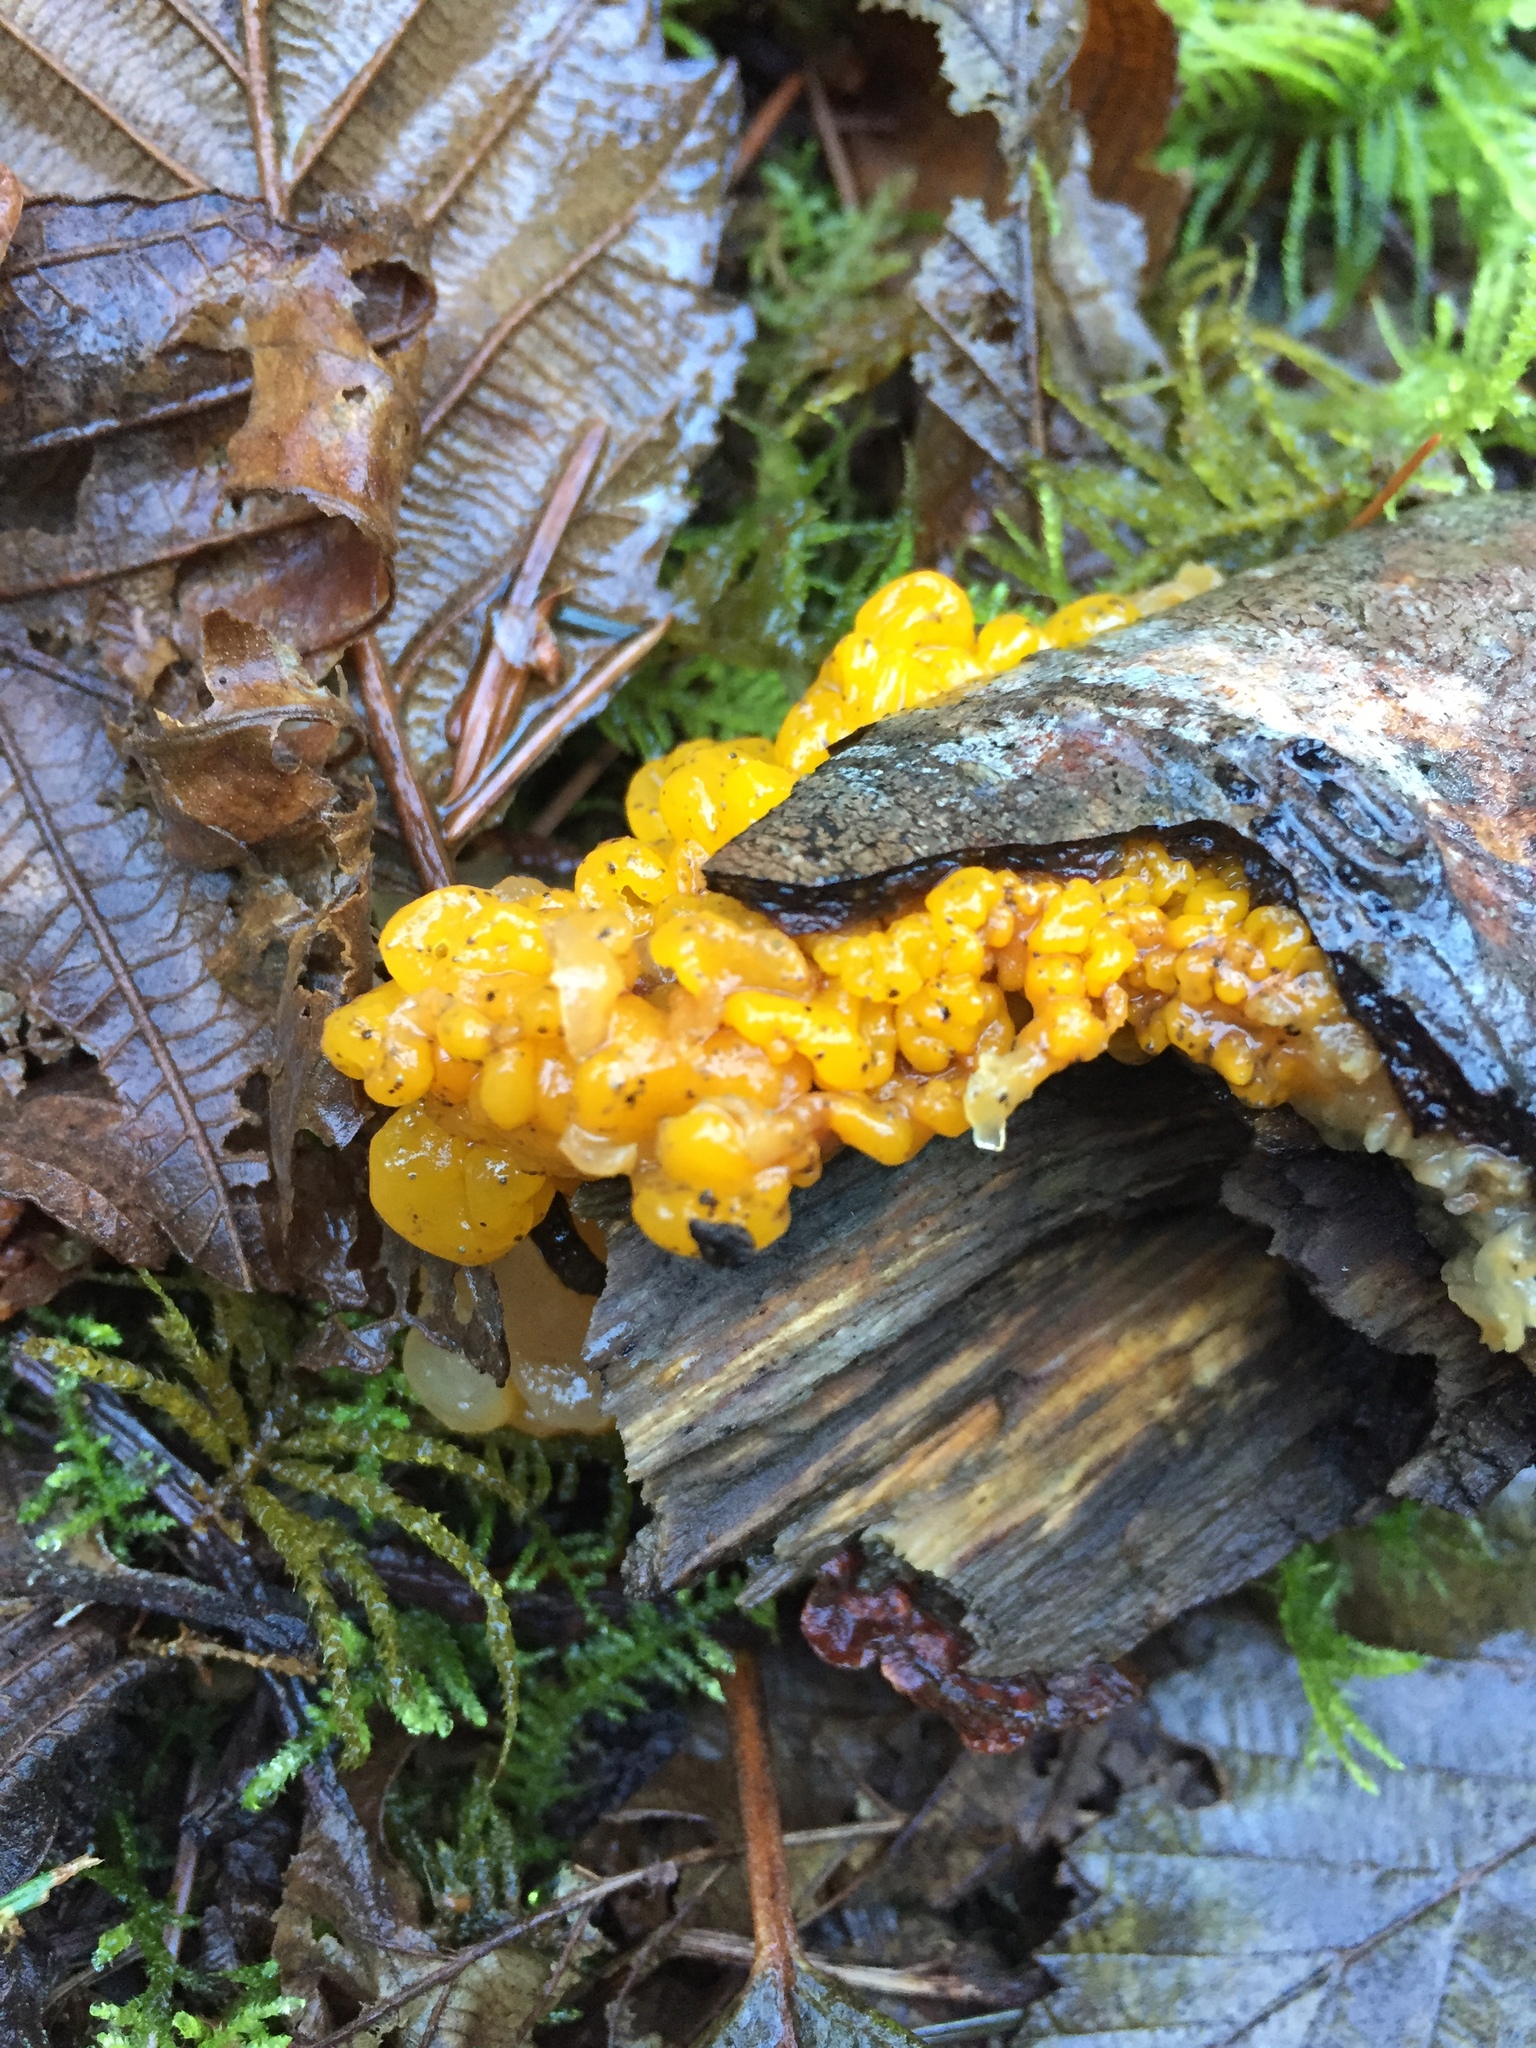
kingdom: Fungi
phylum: Basidiomycota
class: Tremellomycetes
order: Tremellales
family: Tremellaceae
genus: Tremella
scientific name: Tremella mesenterica
